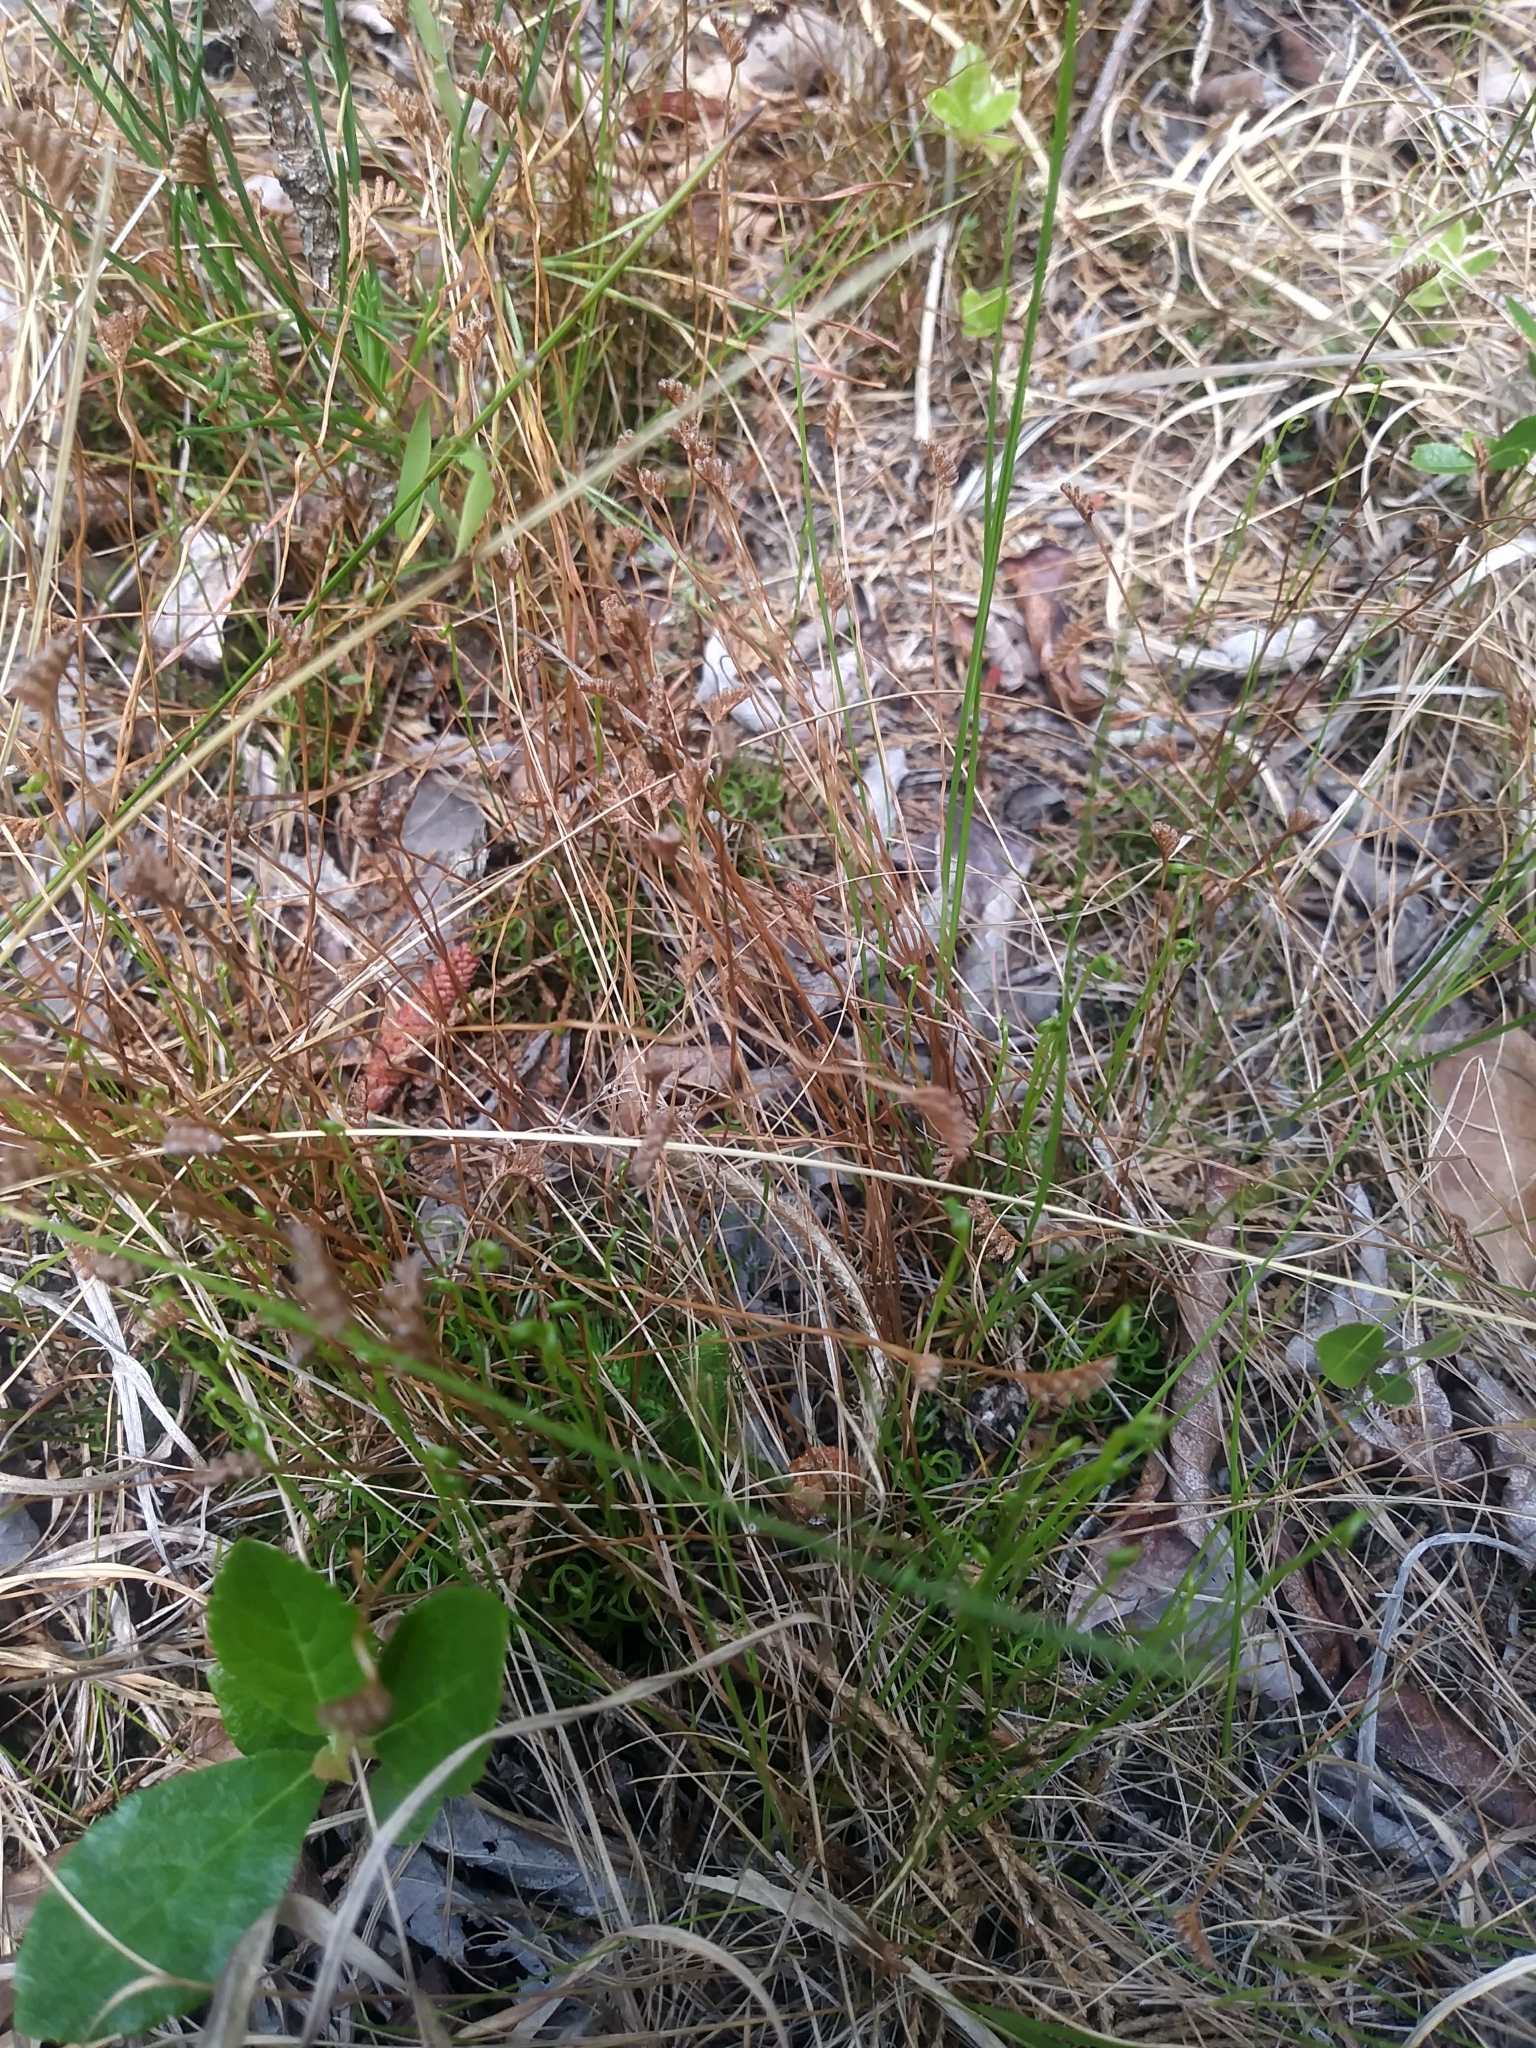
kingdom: Plantae
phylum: Tracheophyta
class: Polypodiopsida
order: Schizaeales
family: Schizaeaceae
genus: Schizaea
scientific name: Schizaea pusilla
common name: Curly-grass fern
